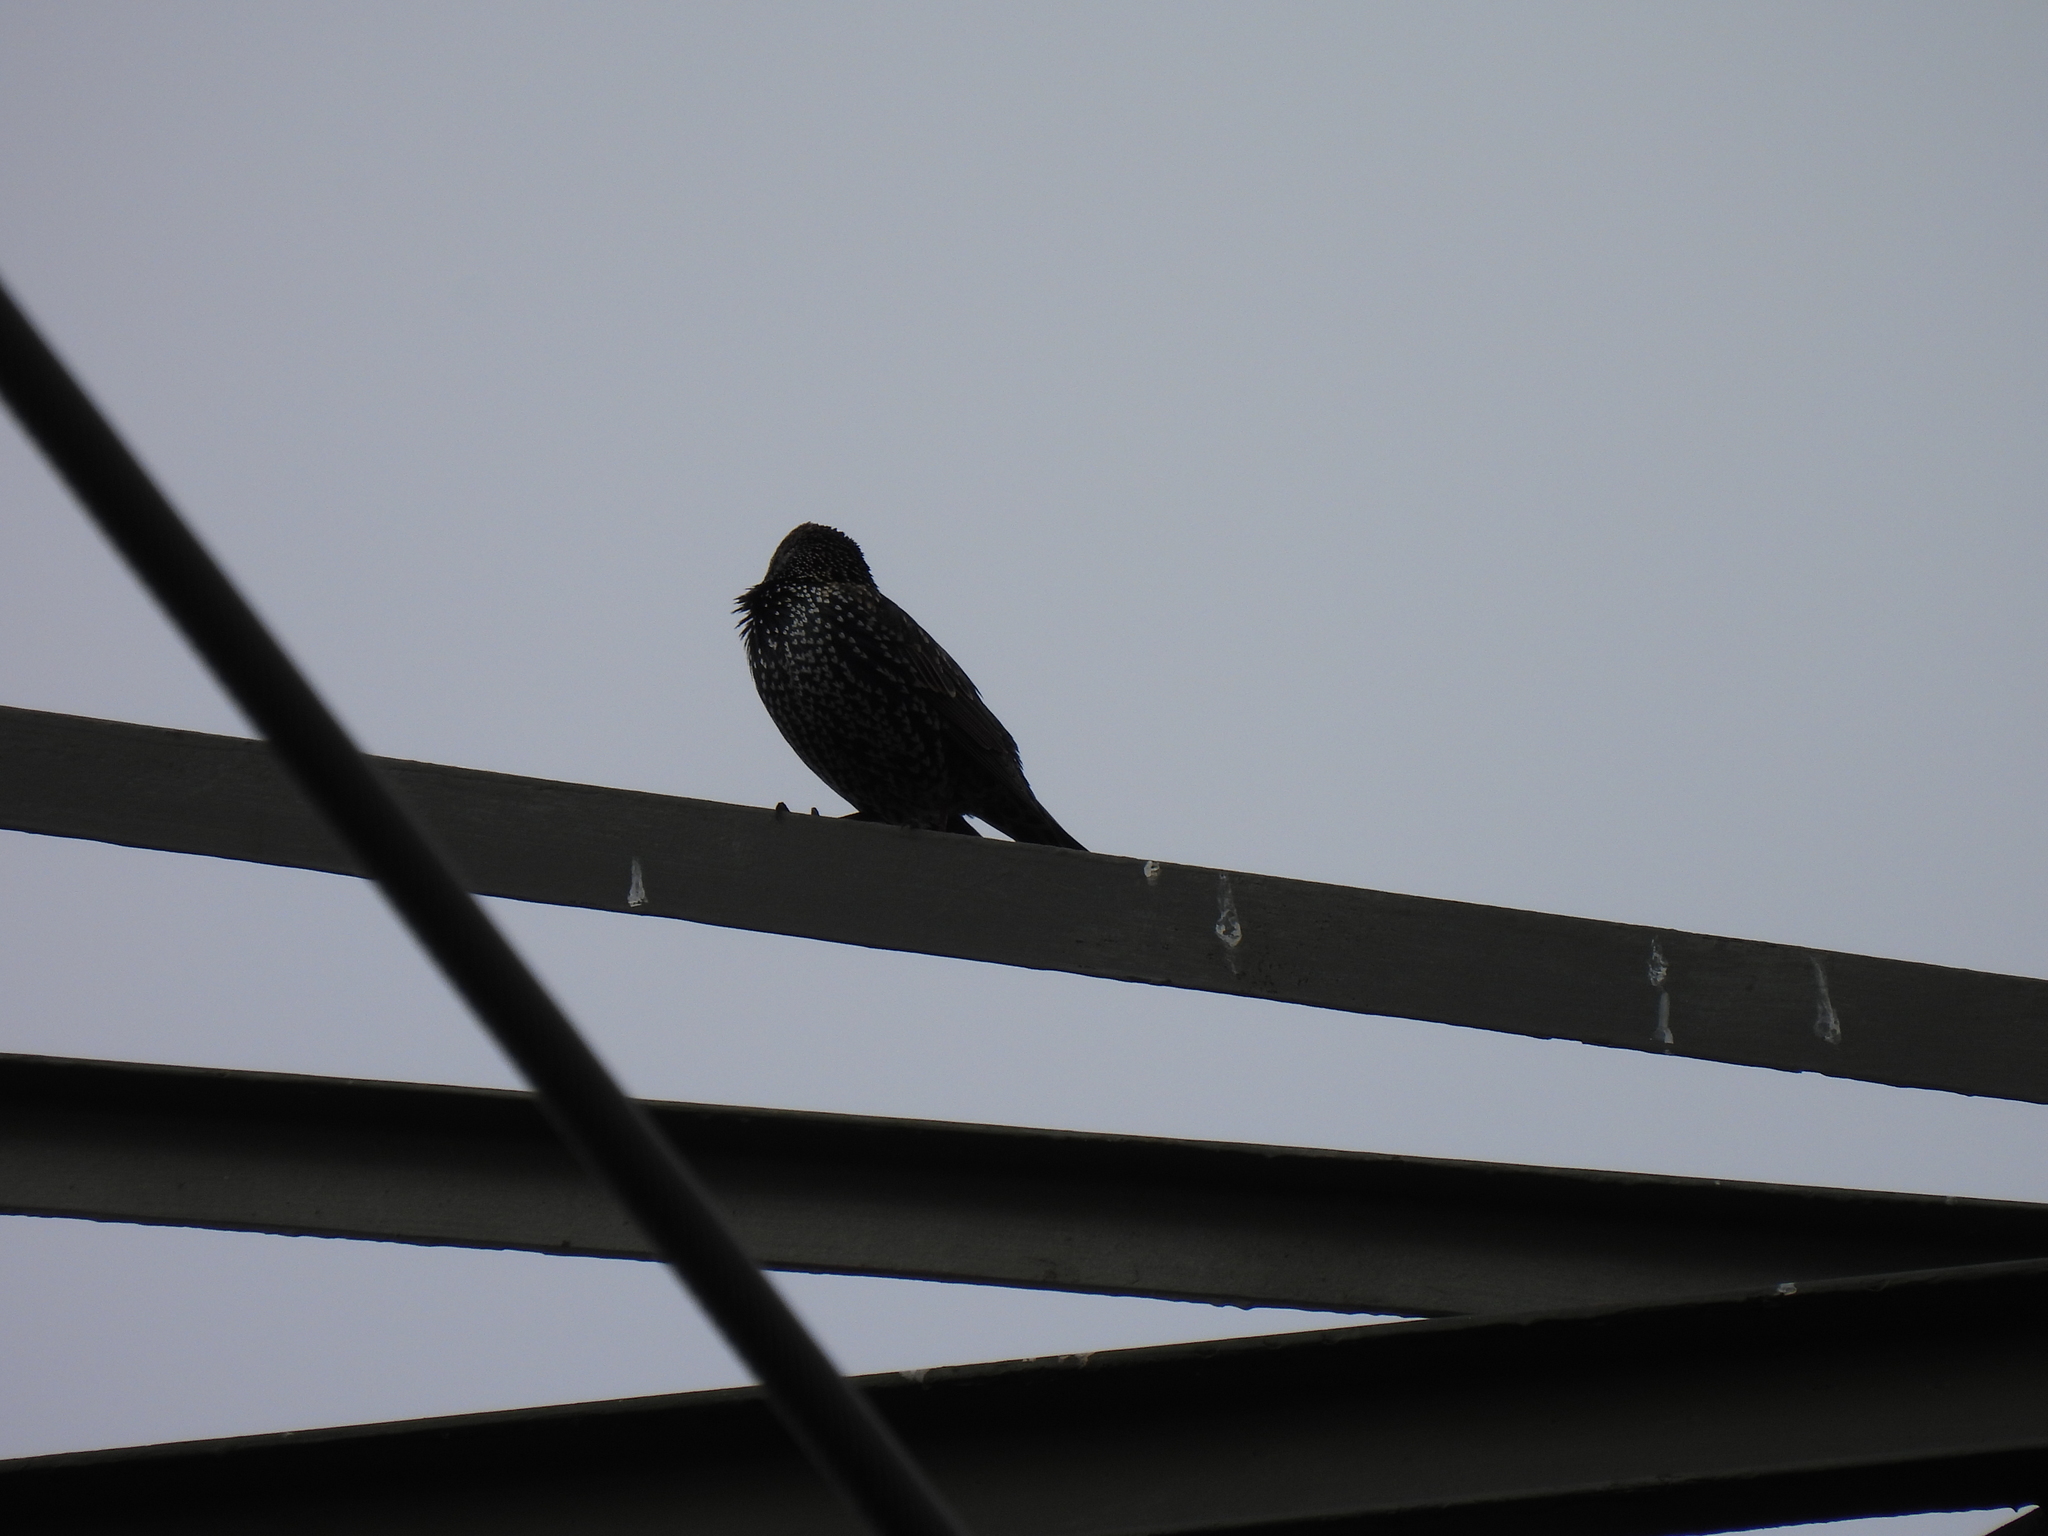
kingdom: Animalia
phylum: Chordata
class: Aves
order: Passeriformes
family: Sturnidae
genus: Sturnus
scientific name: Sturnus vulgaris
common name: Common starling
